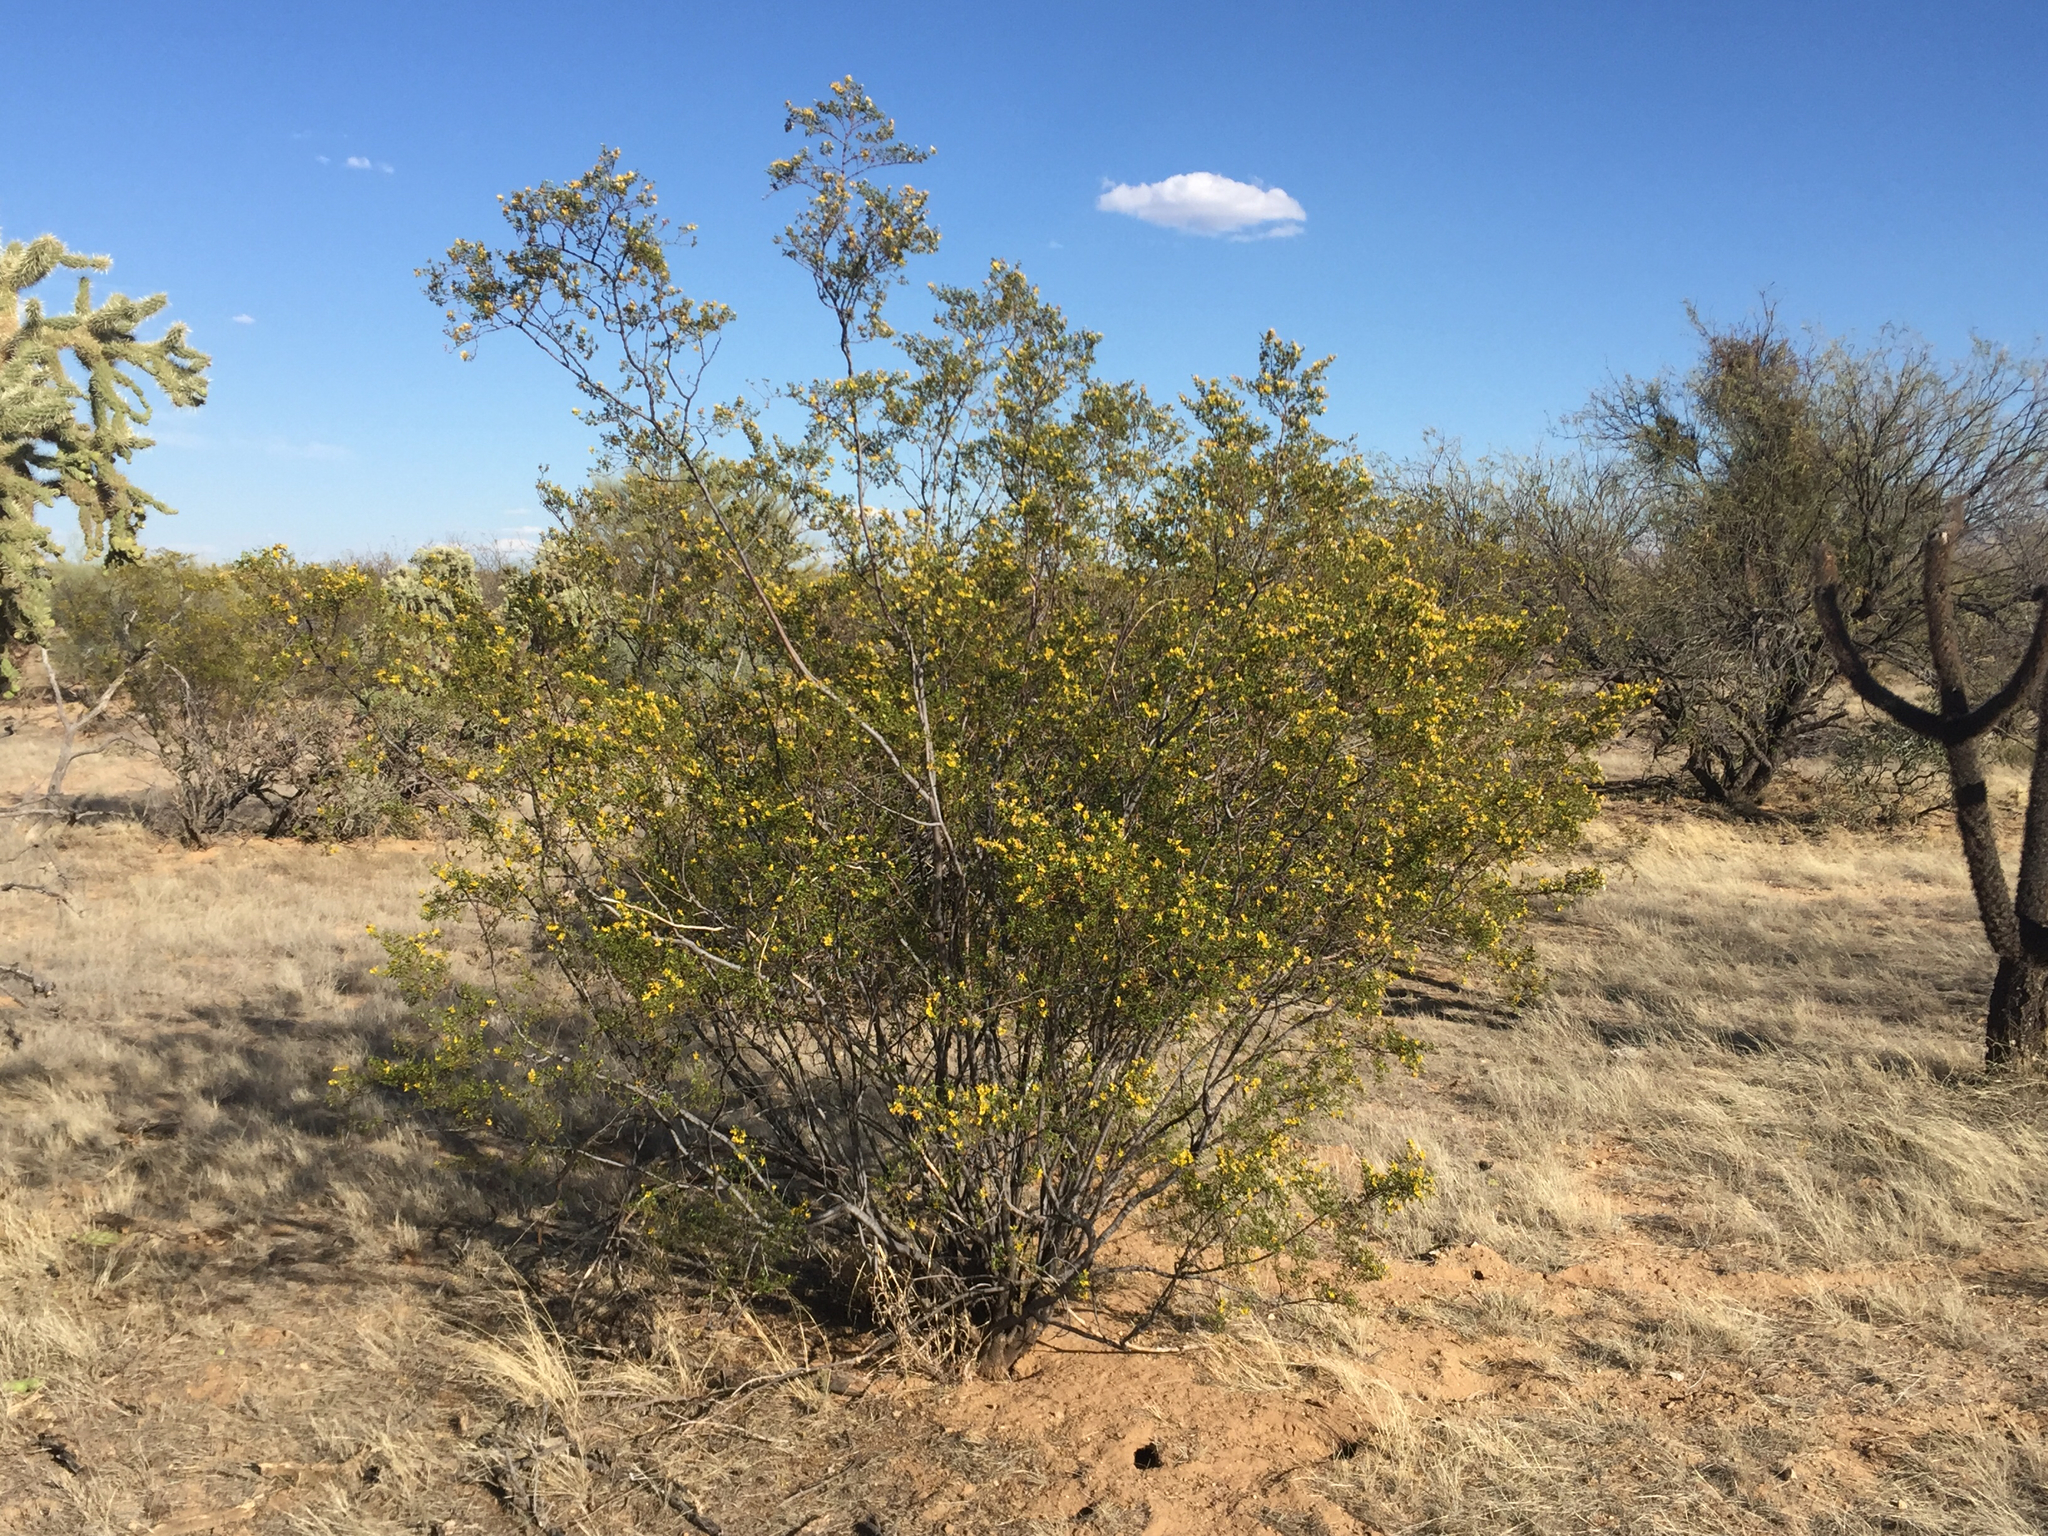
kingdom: Plantae
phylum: Tracheophyta
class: Magnoliopsida
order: Zygophyllales
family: Zygophyllaceae
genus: Larrea
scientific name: Larrea tridentata
